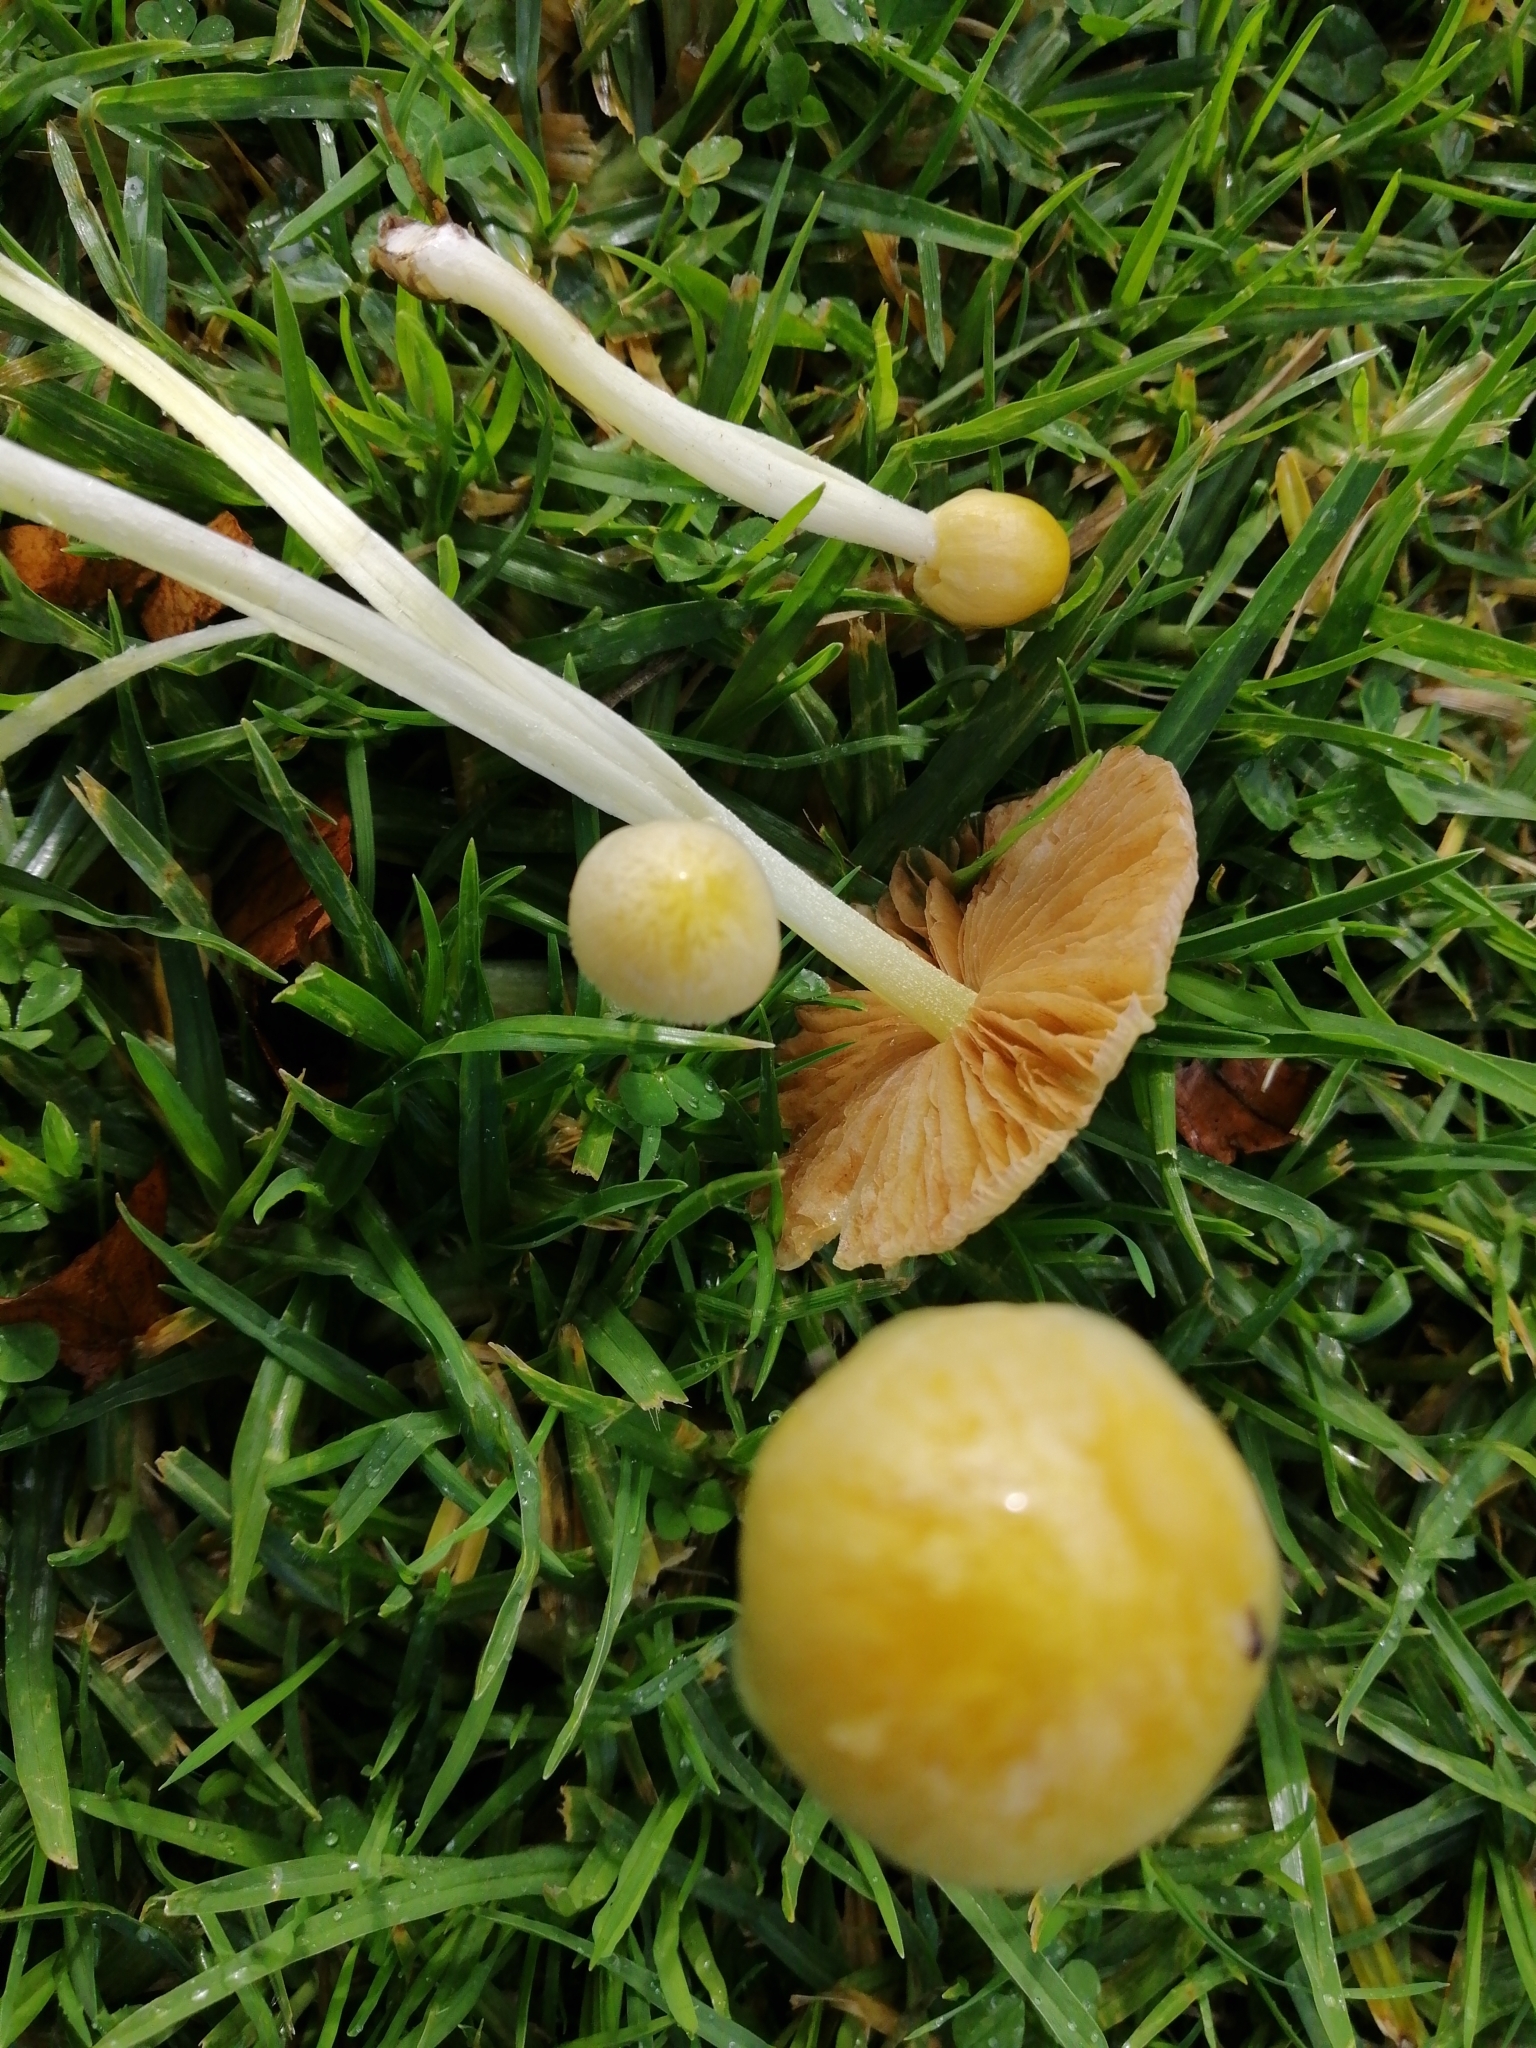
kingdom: Fungi
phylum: Basidiomycota
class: Agaricomycetes
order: Agaricales
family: Bolbitiaceae
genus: Bolbitius
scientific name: Bolbitius titubans
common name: Yellow fieldcap
